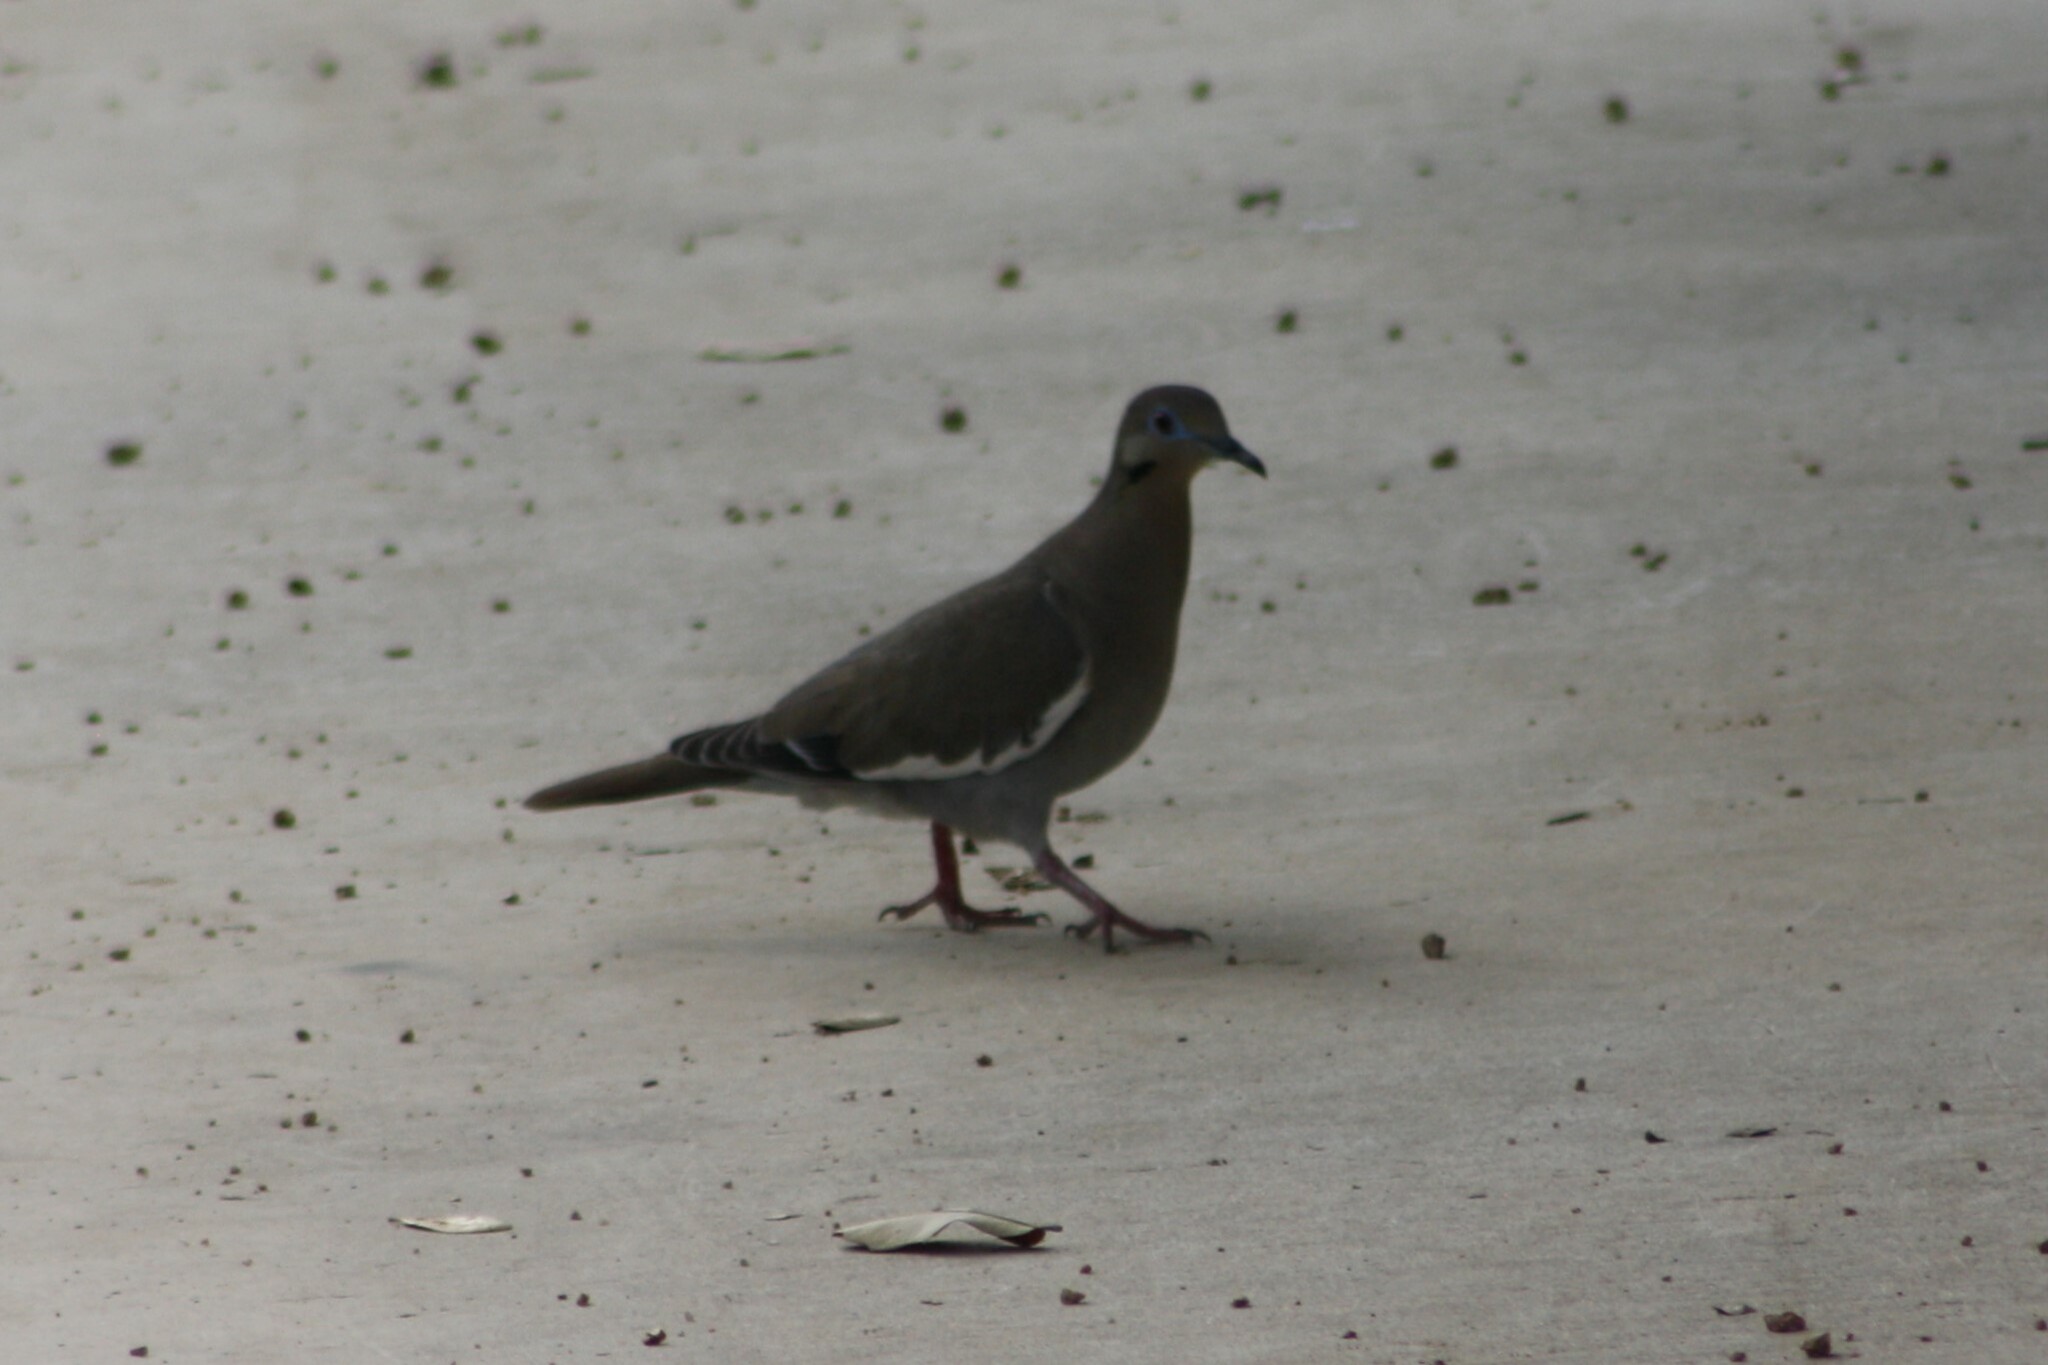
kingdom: Animalia
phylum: Chordata
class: Aves
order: Columbiformes
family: Columbidae
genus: Zenaida
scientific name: Zenaida asiatica
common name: White-winged dove
